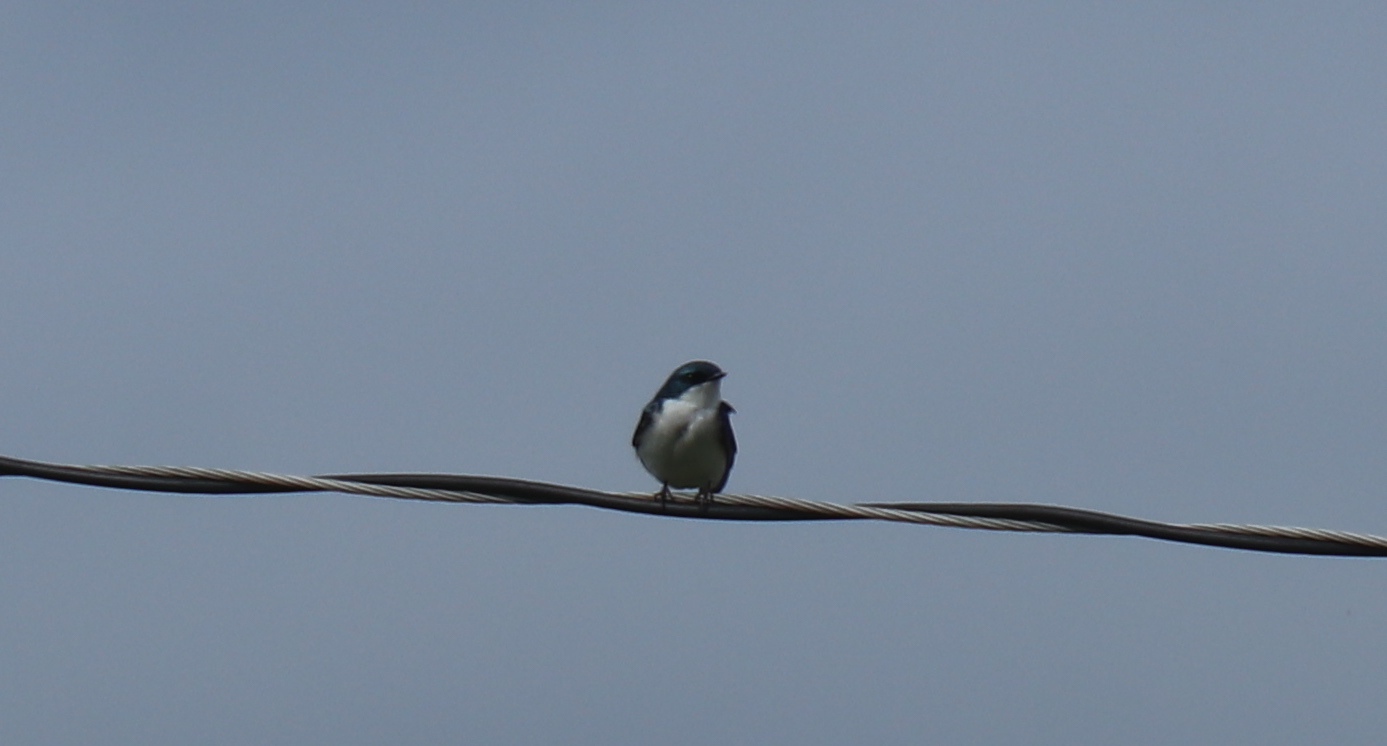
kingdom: Animalia
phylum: Chordata
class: Aves
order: Passeriformes
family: Hirundinidae
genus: Tachycineta
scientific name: Tachycineta bicolor
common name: Tree swallow
